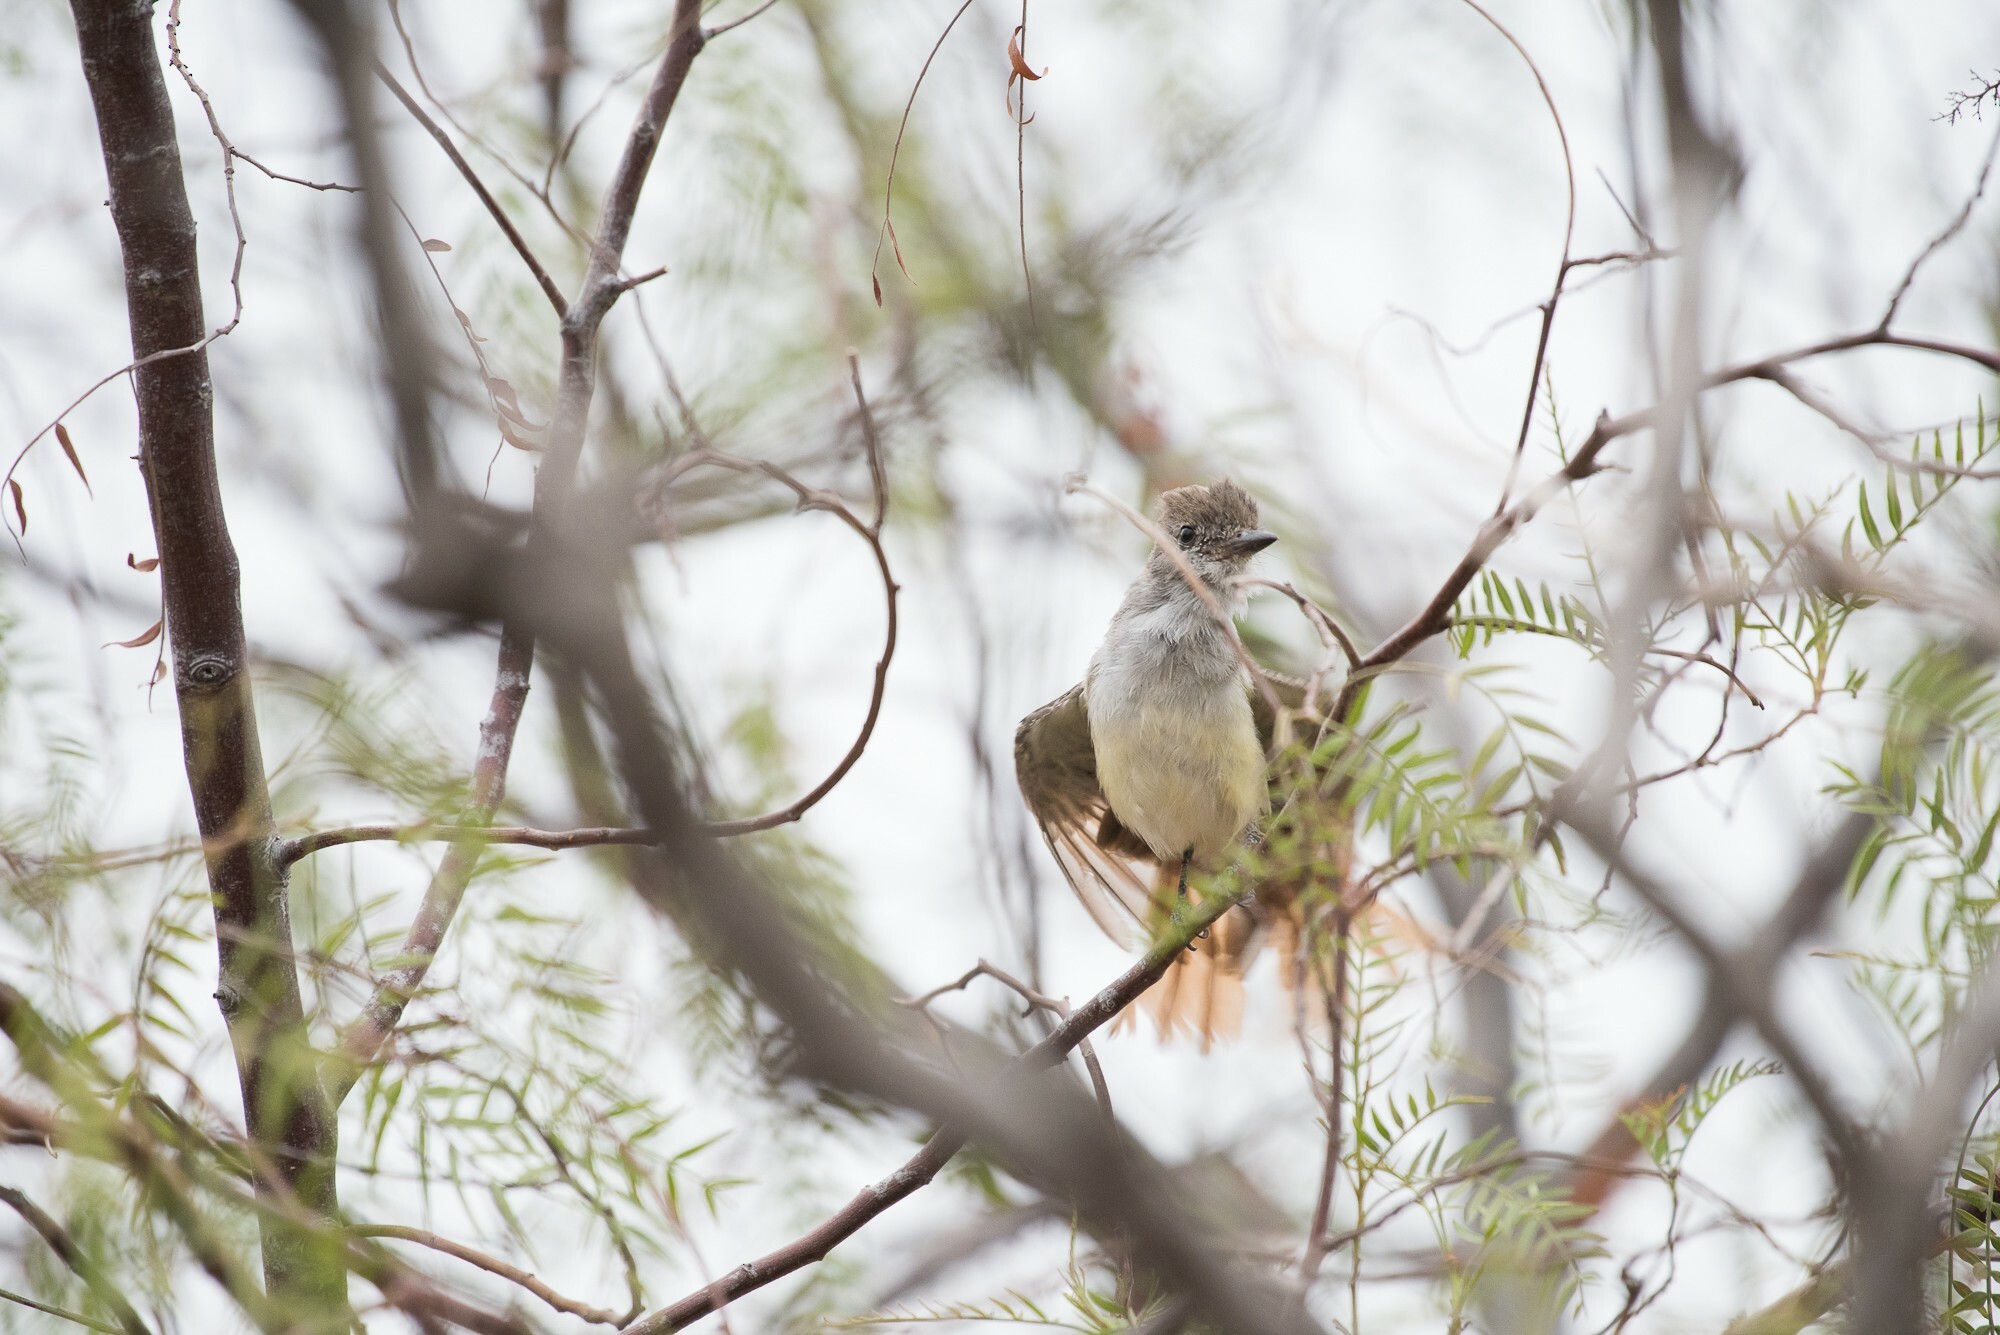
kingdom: Animalia
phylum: Chordata
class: Aves
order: Passeriformes
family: Tyrannidae
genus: Myiarchus
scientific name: Myiarchus cinerascens
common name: Ash-throated flycatcher
